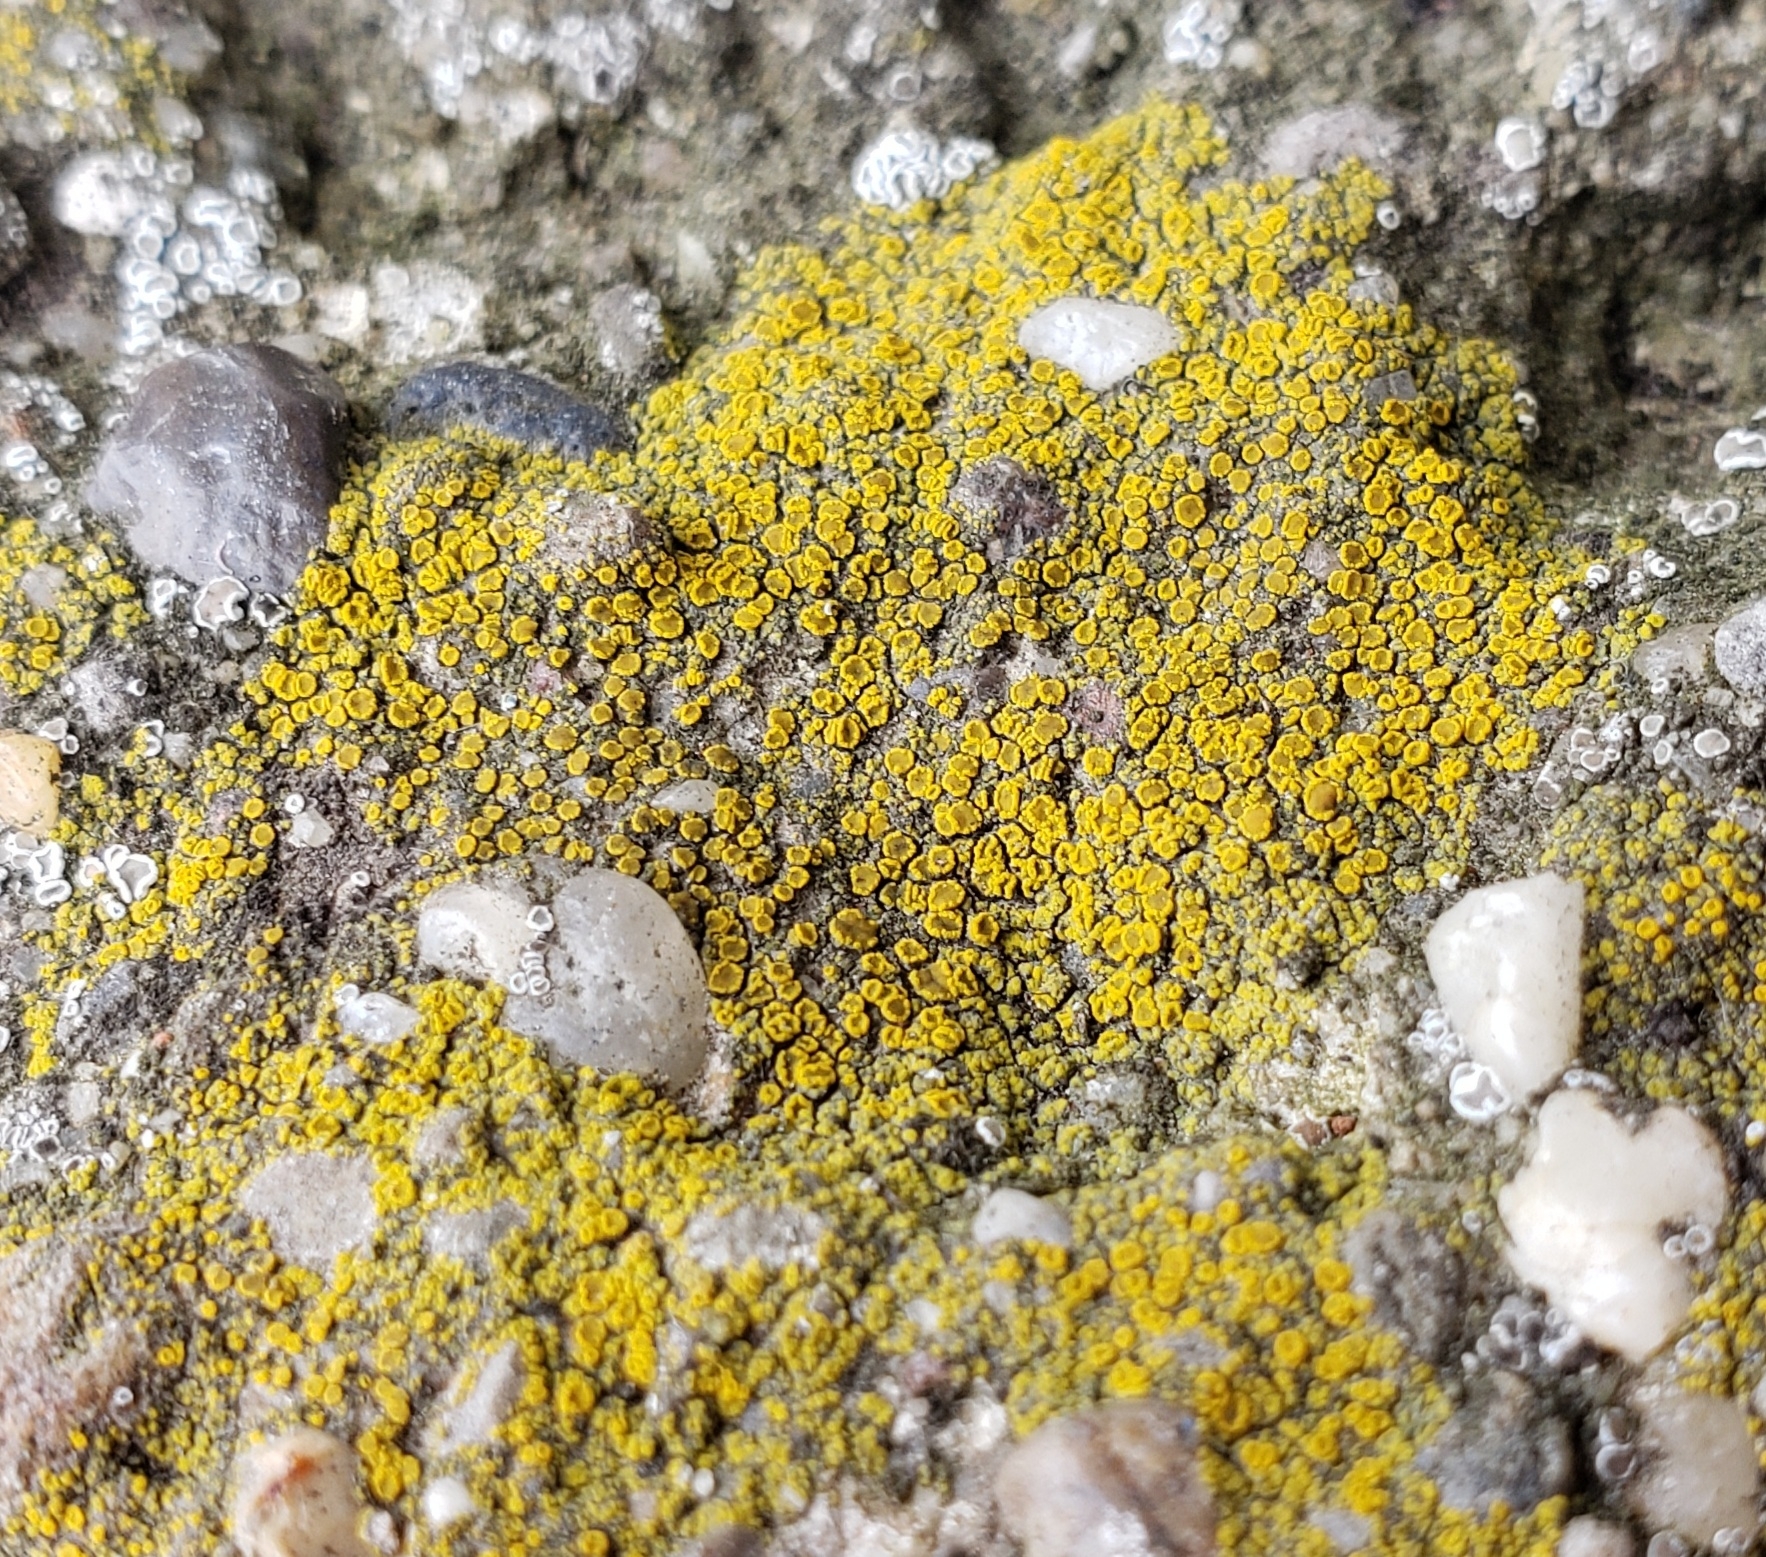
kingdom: Fungi
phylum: Ascomycota
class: Candelariomycetes
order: Candelariales
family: Candelariaceae
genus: Candelariella
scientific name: Candelariella aurella
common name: Hidden goldspeck lichen
